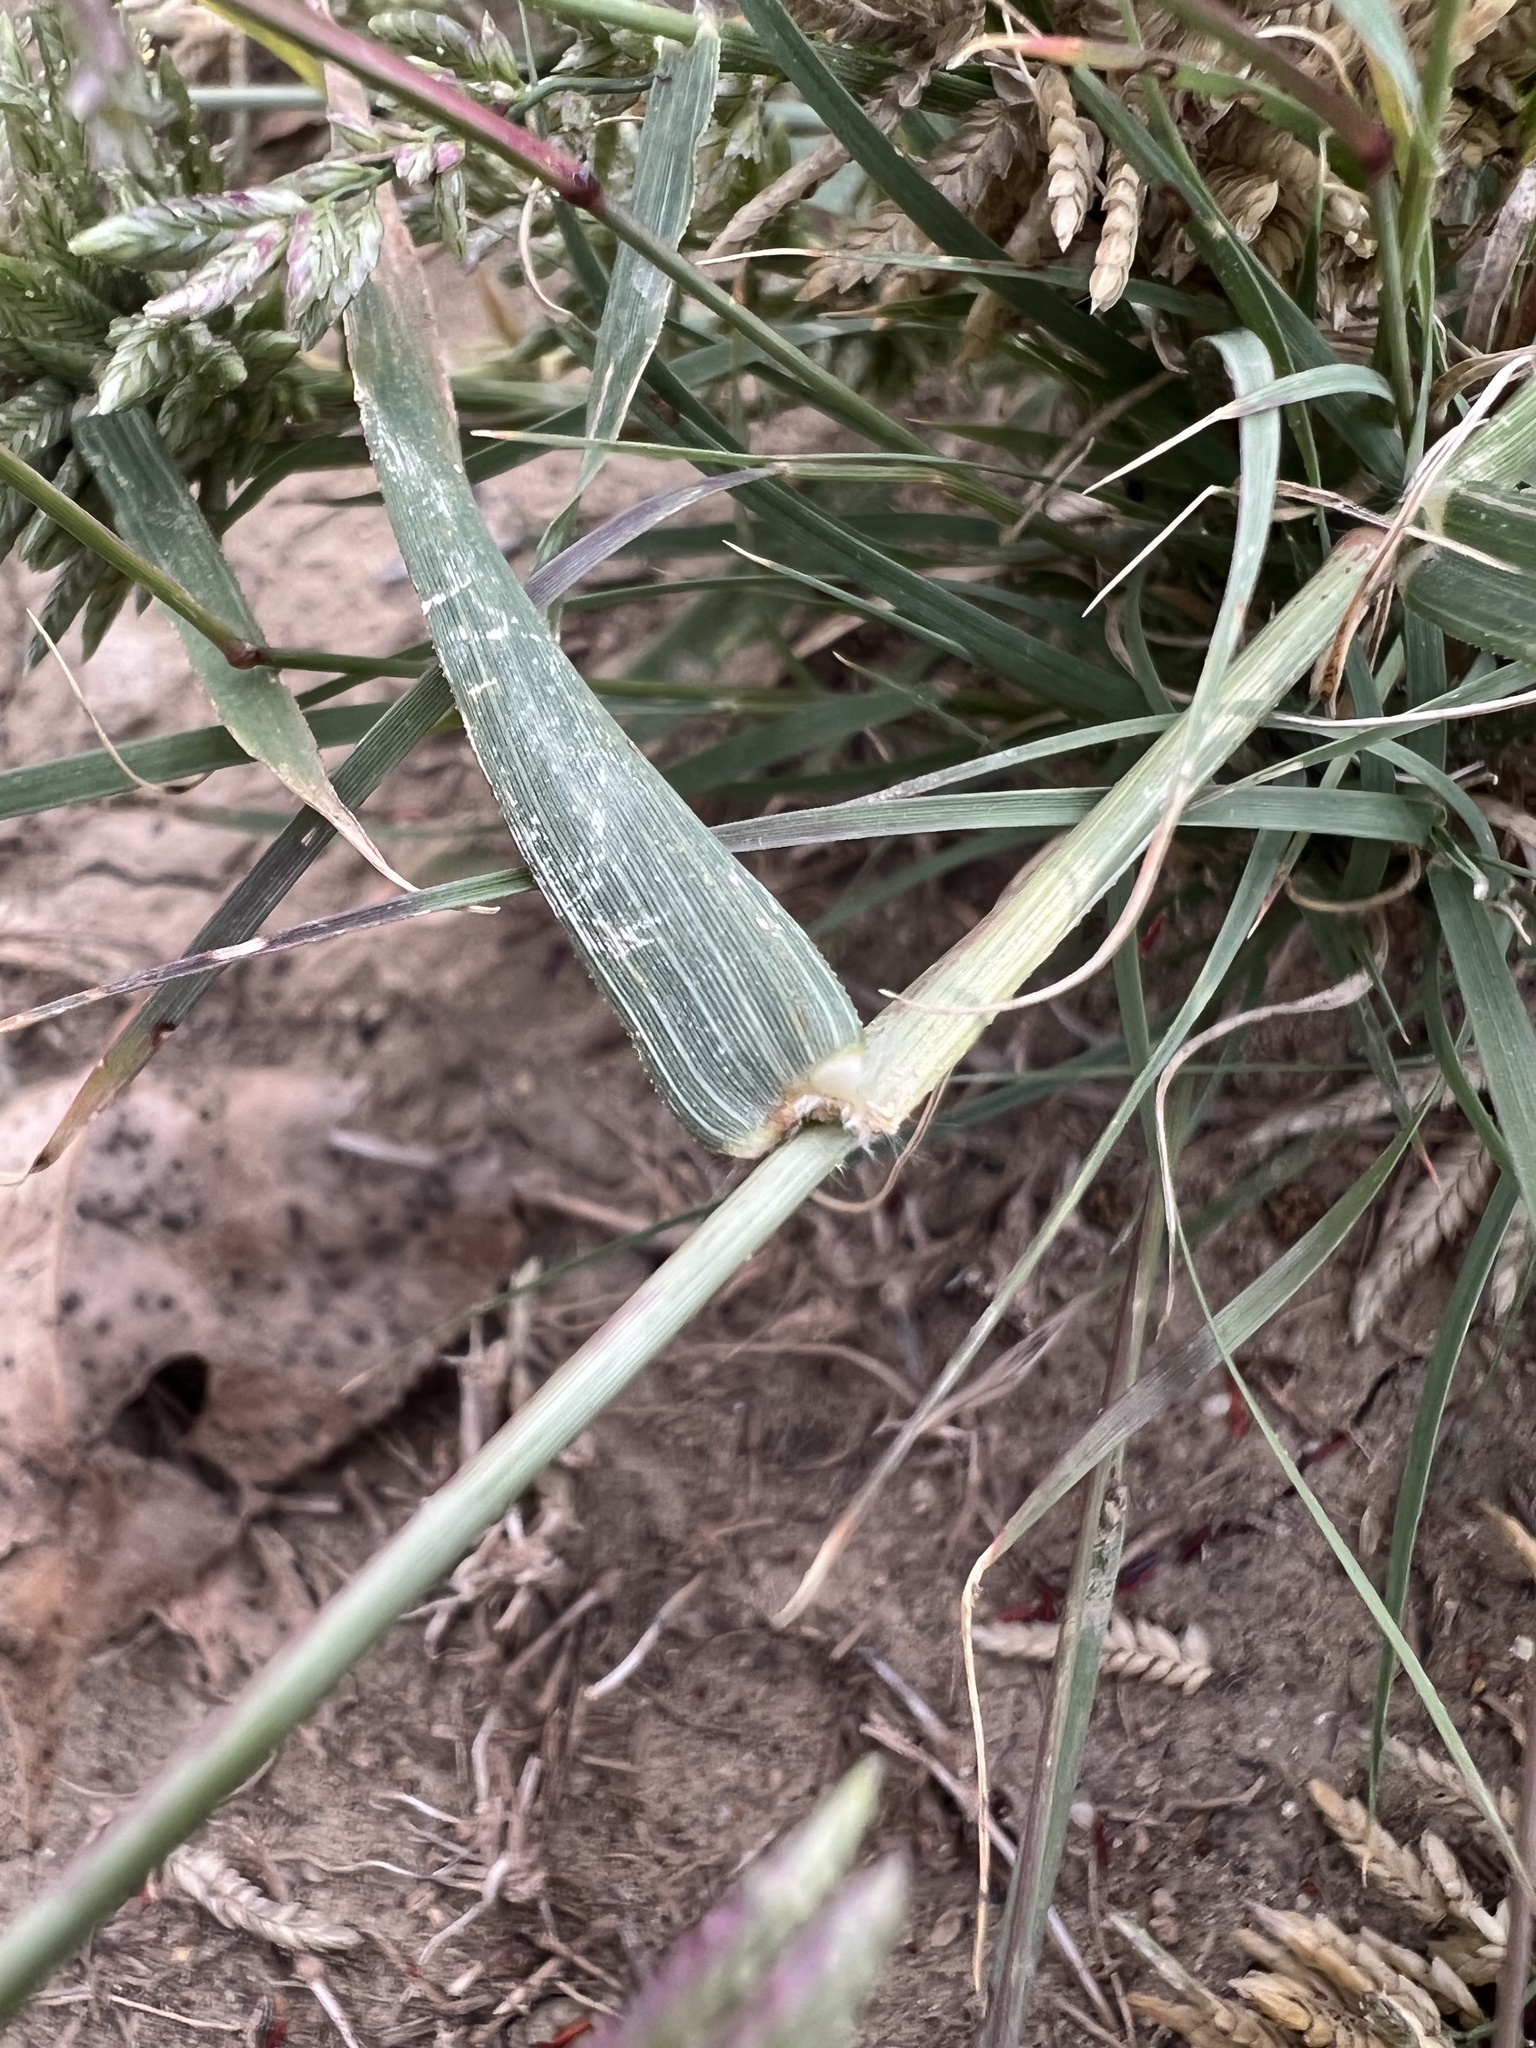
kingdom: Plantae
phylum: Tracheophyta
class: Liliopsida
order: Poales
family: Poaceae
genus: Eragrostis
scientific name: Eragrostis cilianensis
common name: Stinkgrass
